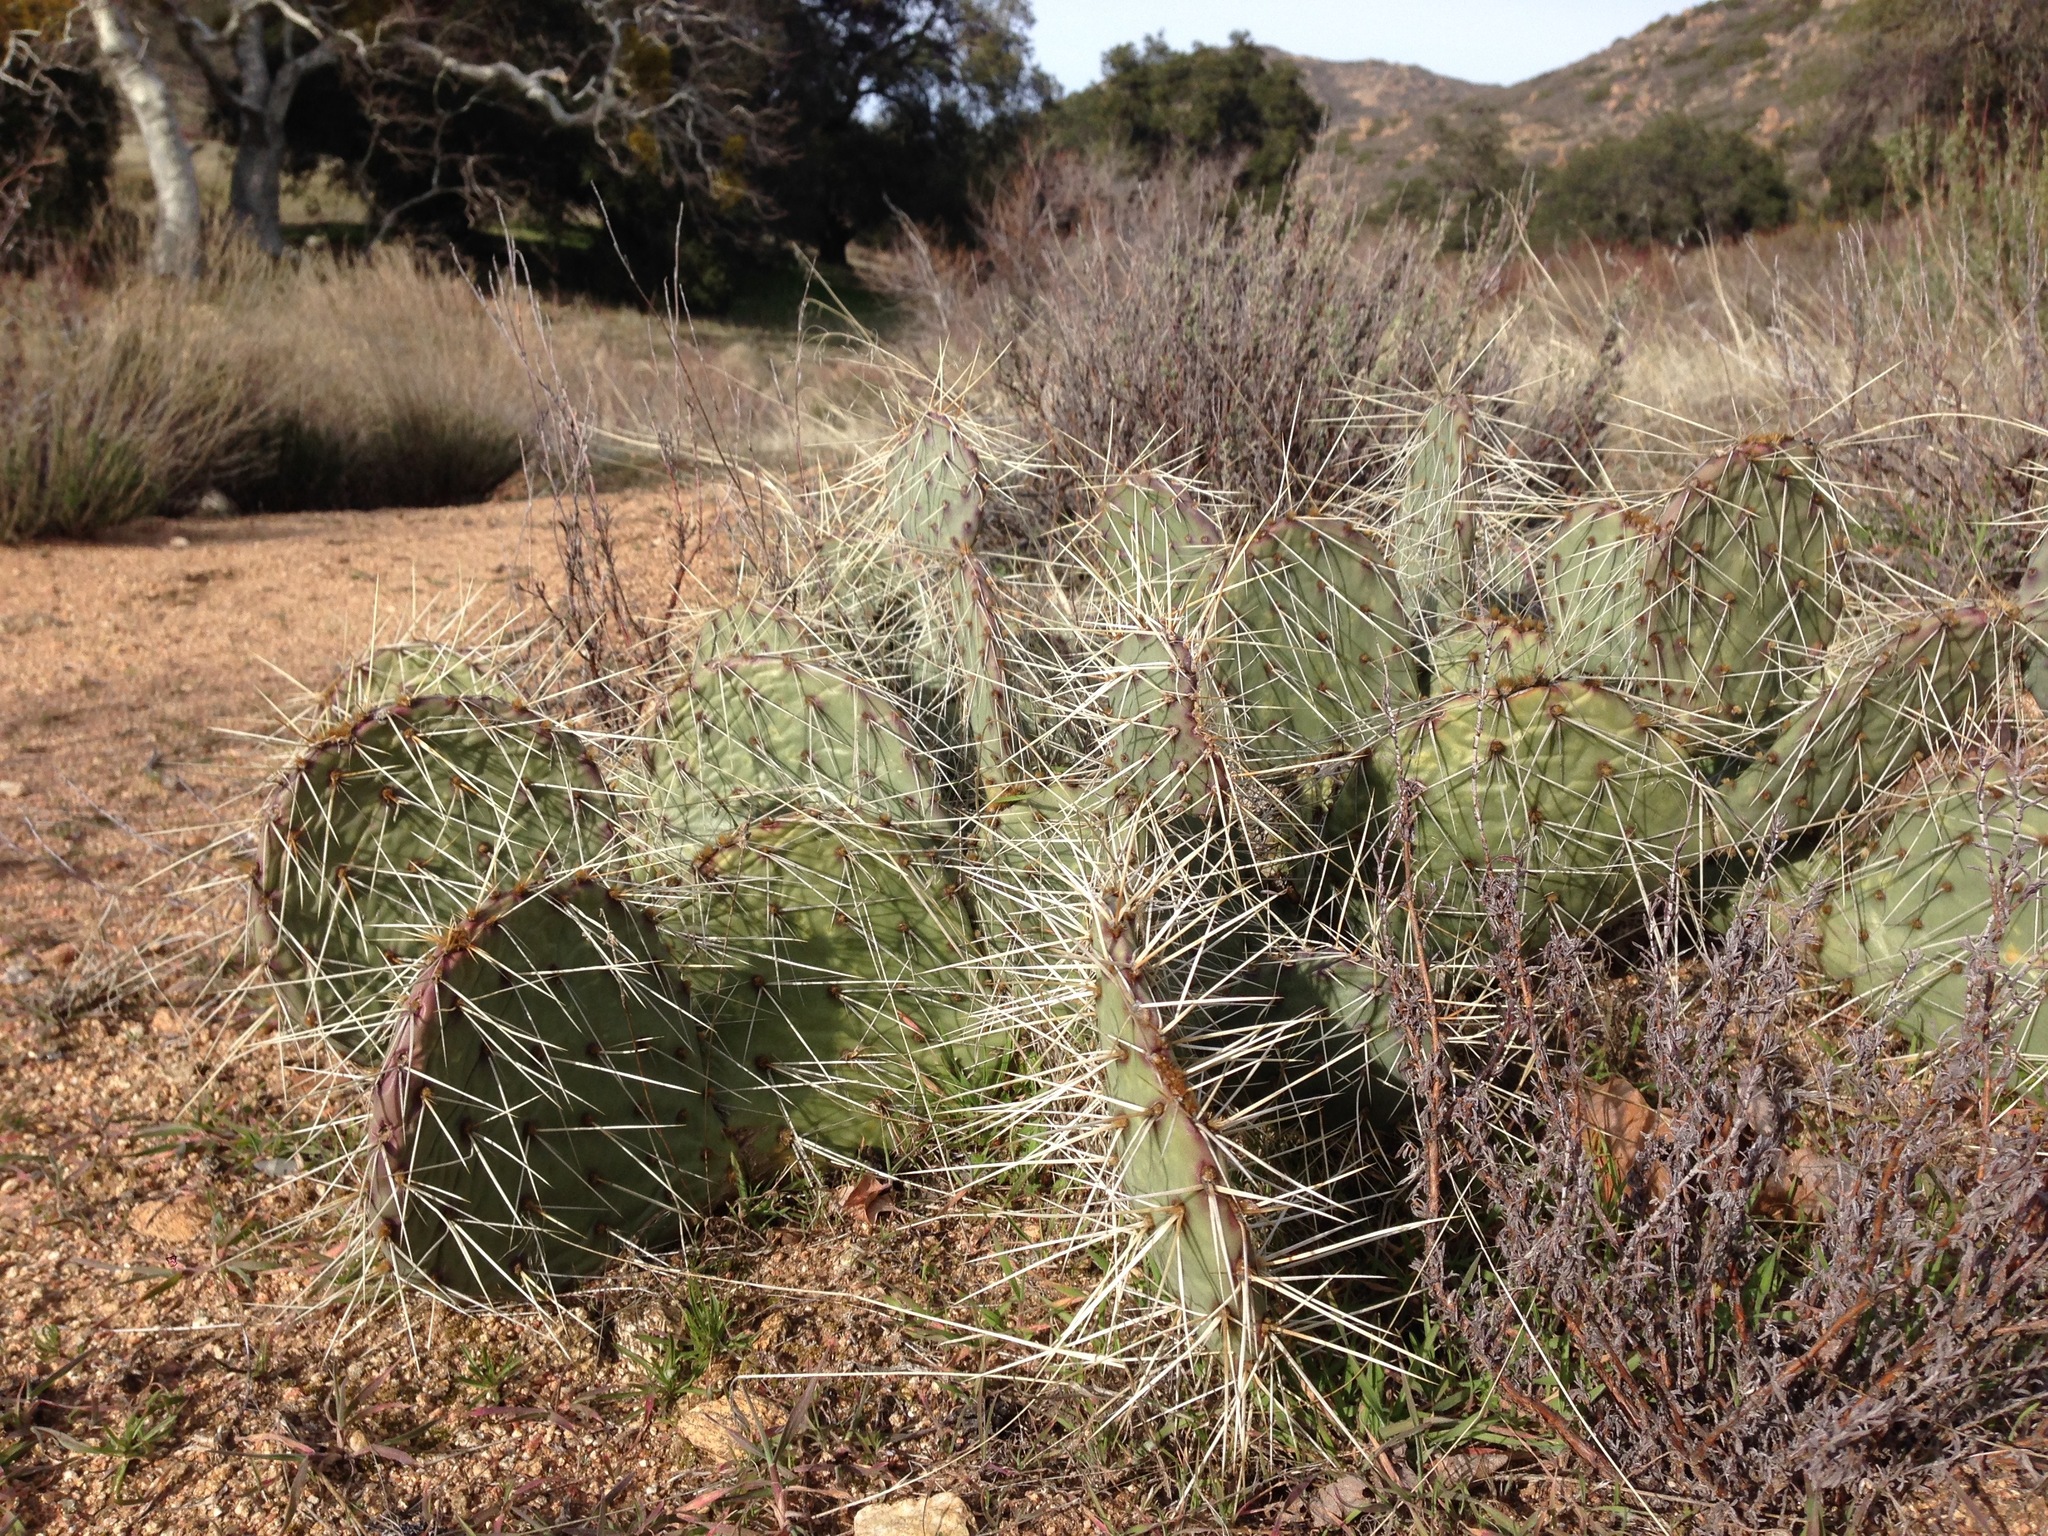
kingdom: Plantae
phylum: Tracheophyta
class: Magnoliopsida
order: Caryophyllales
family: Cactaceae
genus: Opuntia
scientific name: Opuntia phaeacantha
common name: New mexico prickly-pear
